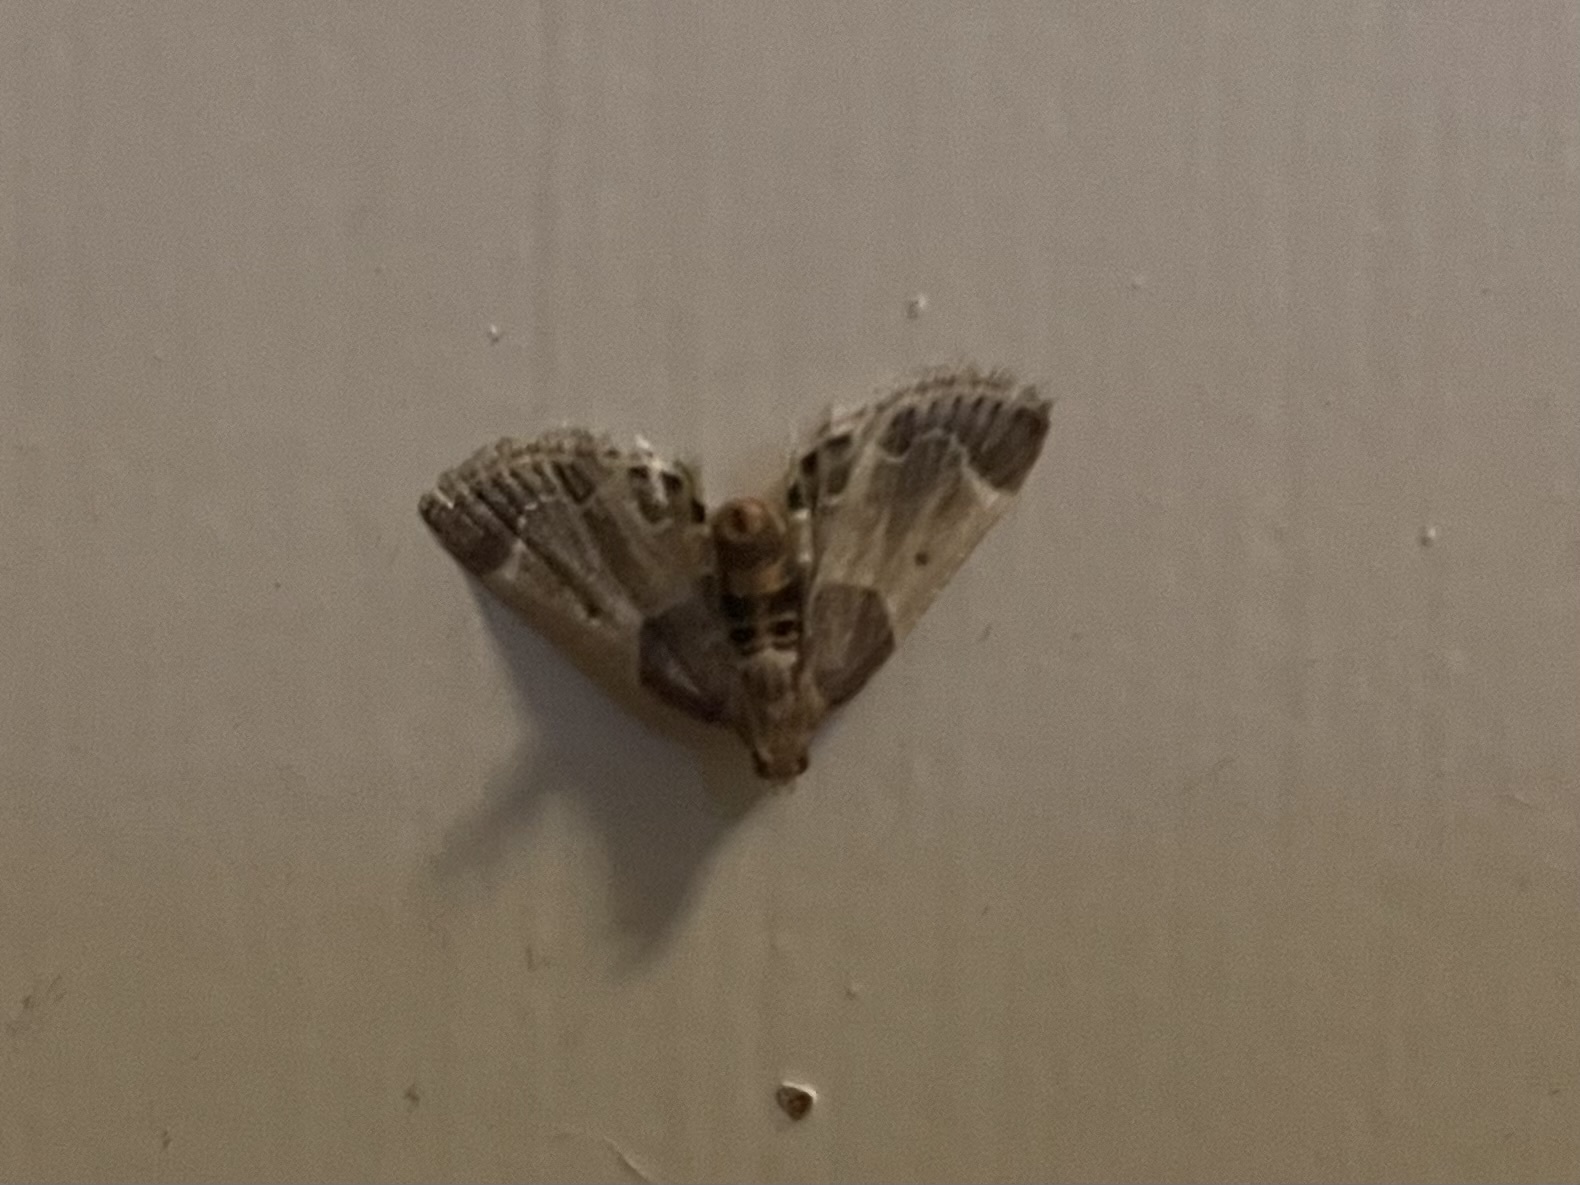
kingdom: Animalia
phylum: Arthropoda
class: Insecta
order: Lepidoptera
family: Pyralidae
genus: Pyralis
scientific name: Pyralis farinalis
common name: Meal moth
